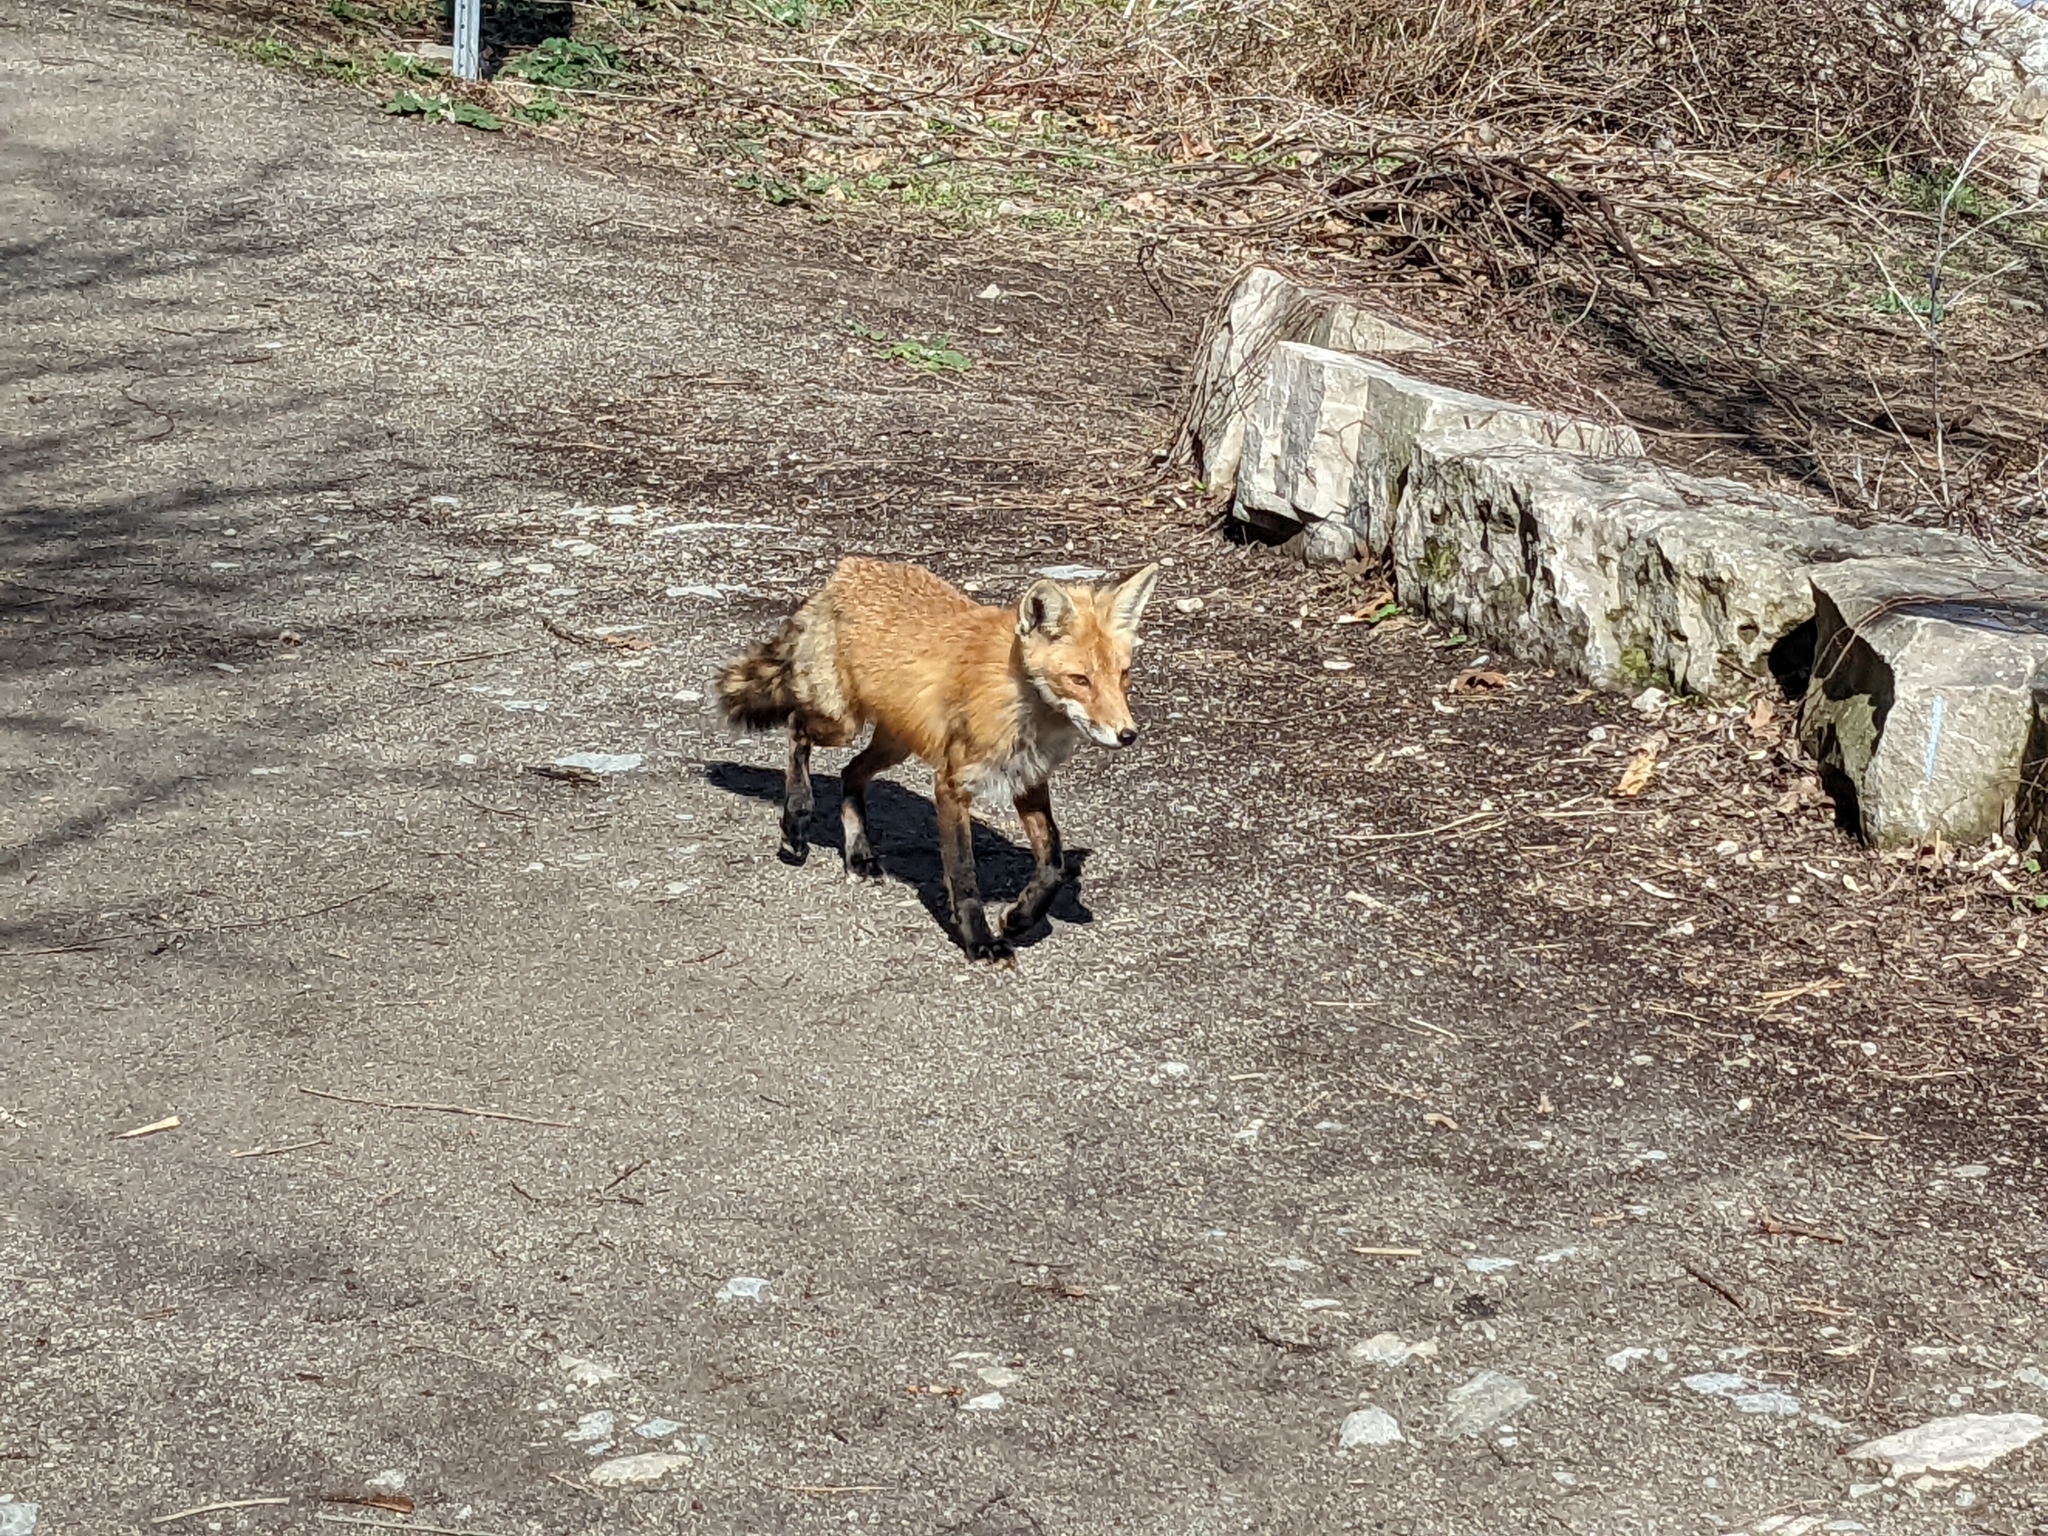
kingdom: Animalia
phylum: Chordata
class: Mammalia
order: Carnivora
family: Canidae
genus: Vulpes
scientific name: Vulpes vulpes
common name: Red fox
